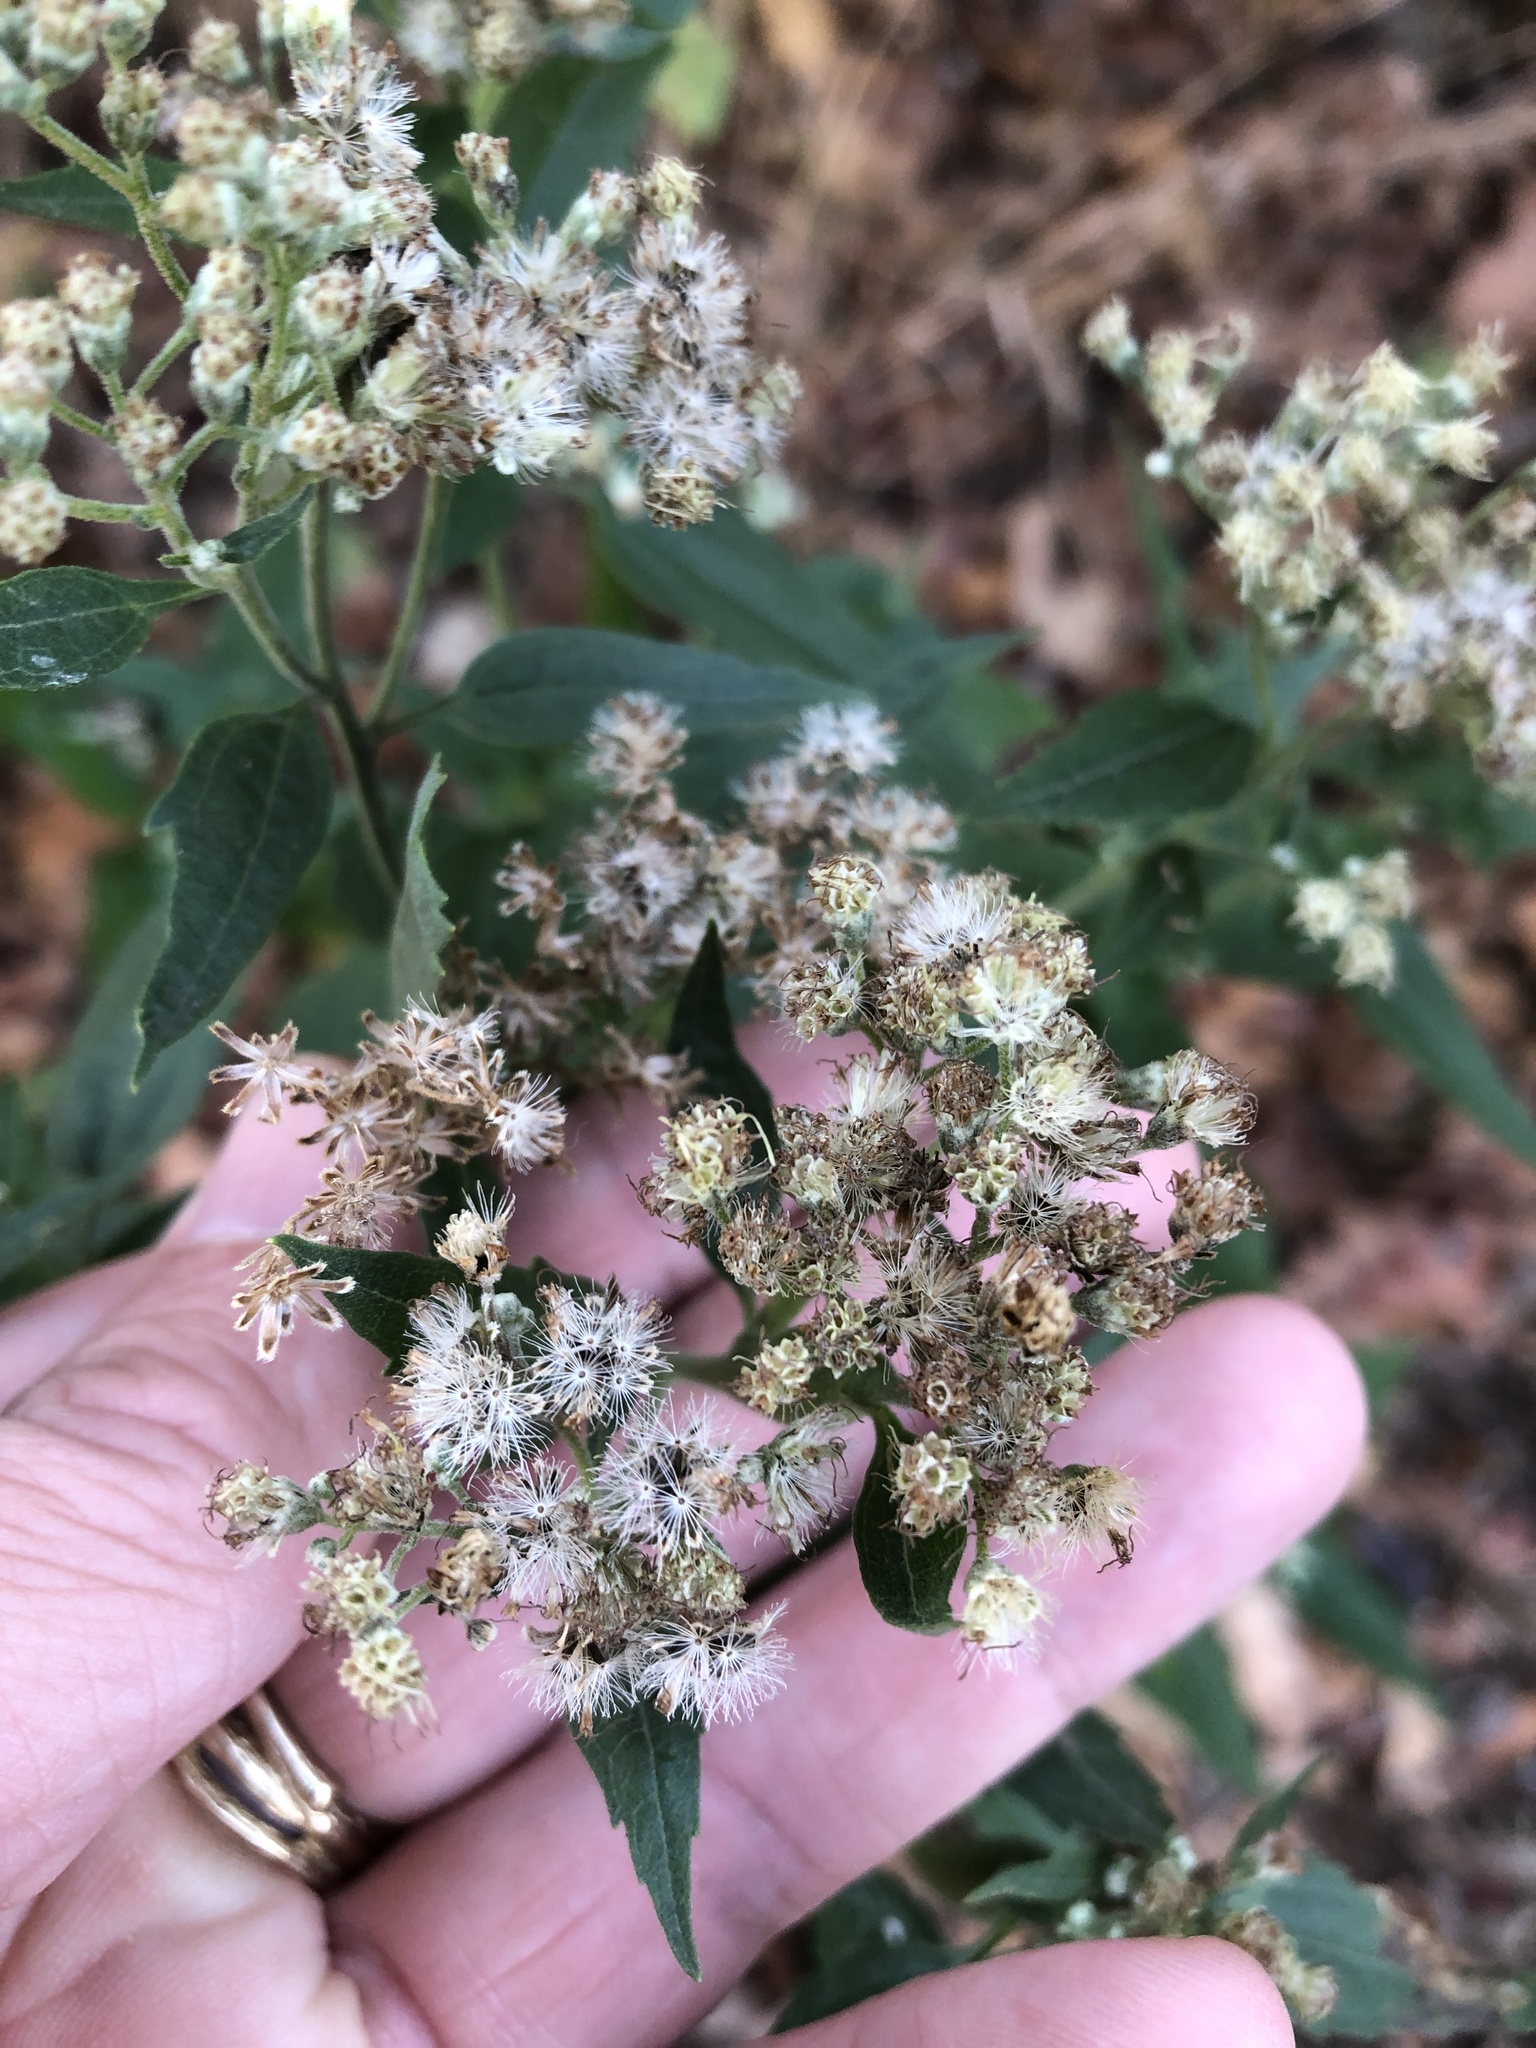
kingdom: Plantae
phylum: Tracheophyta
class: Magnoliopsida
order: Asterales
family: Asteraceae
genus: Eupatorium
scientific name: Eupatorium serotinum
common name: Late boneset
